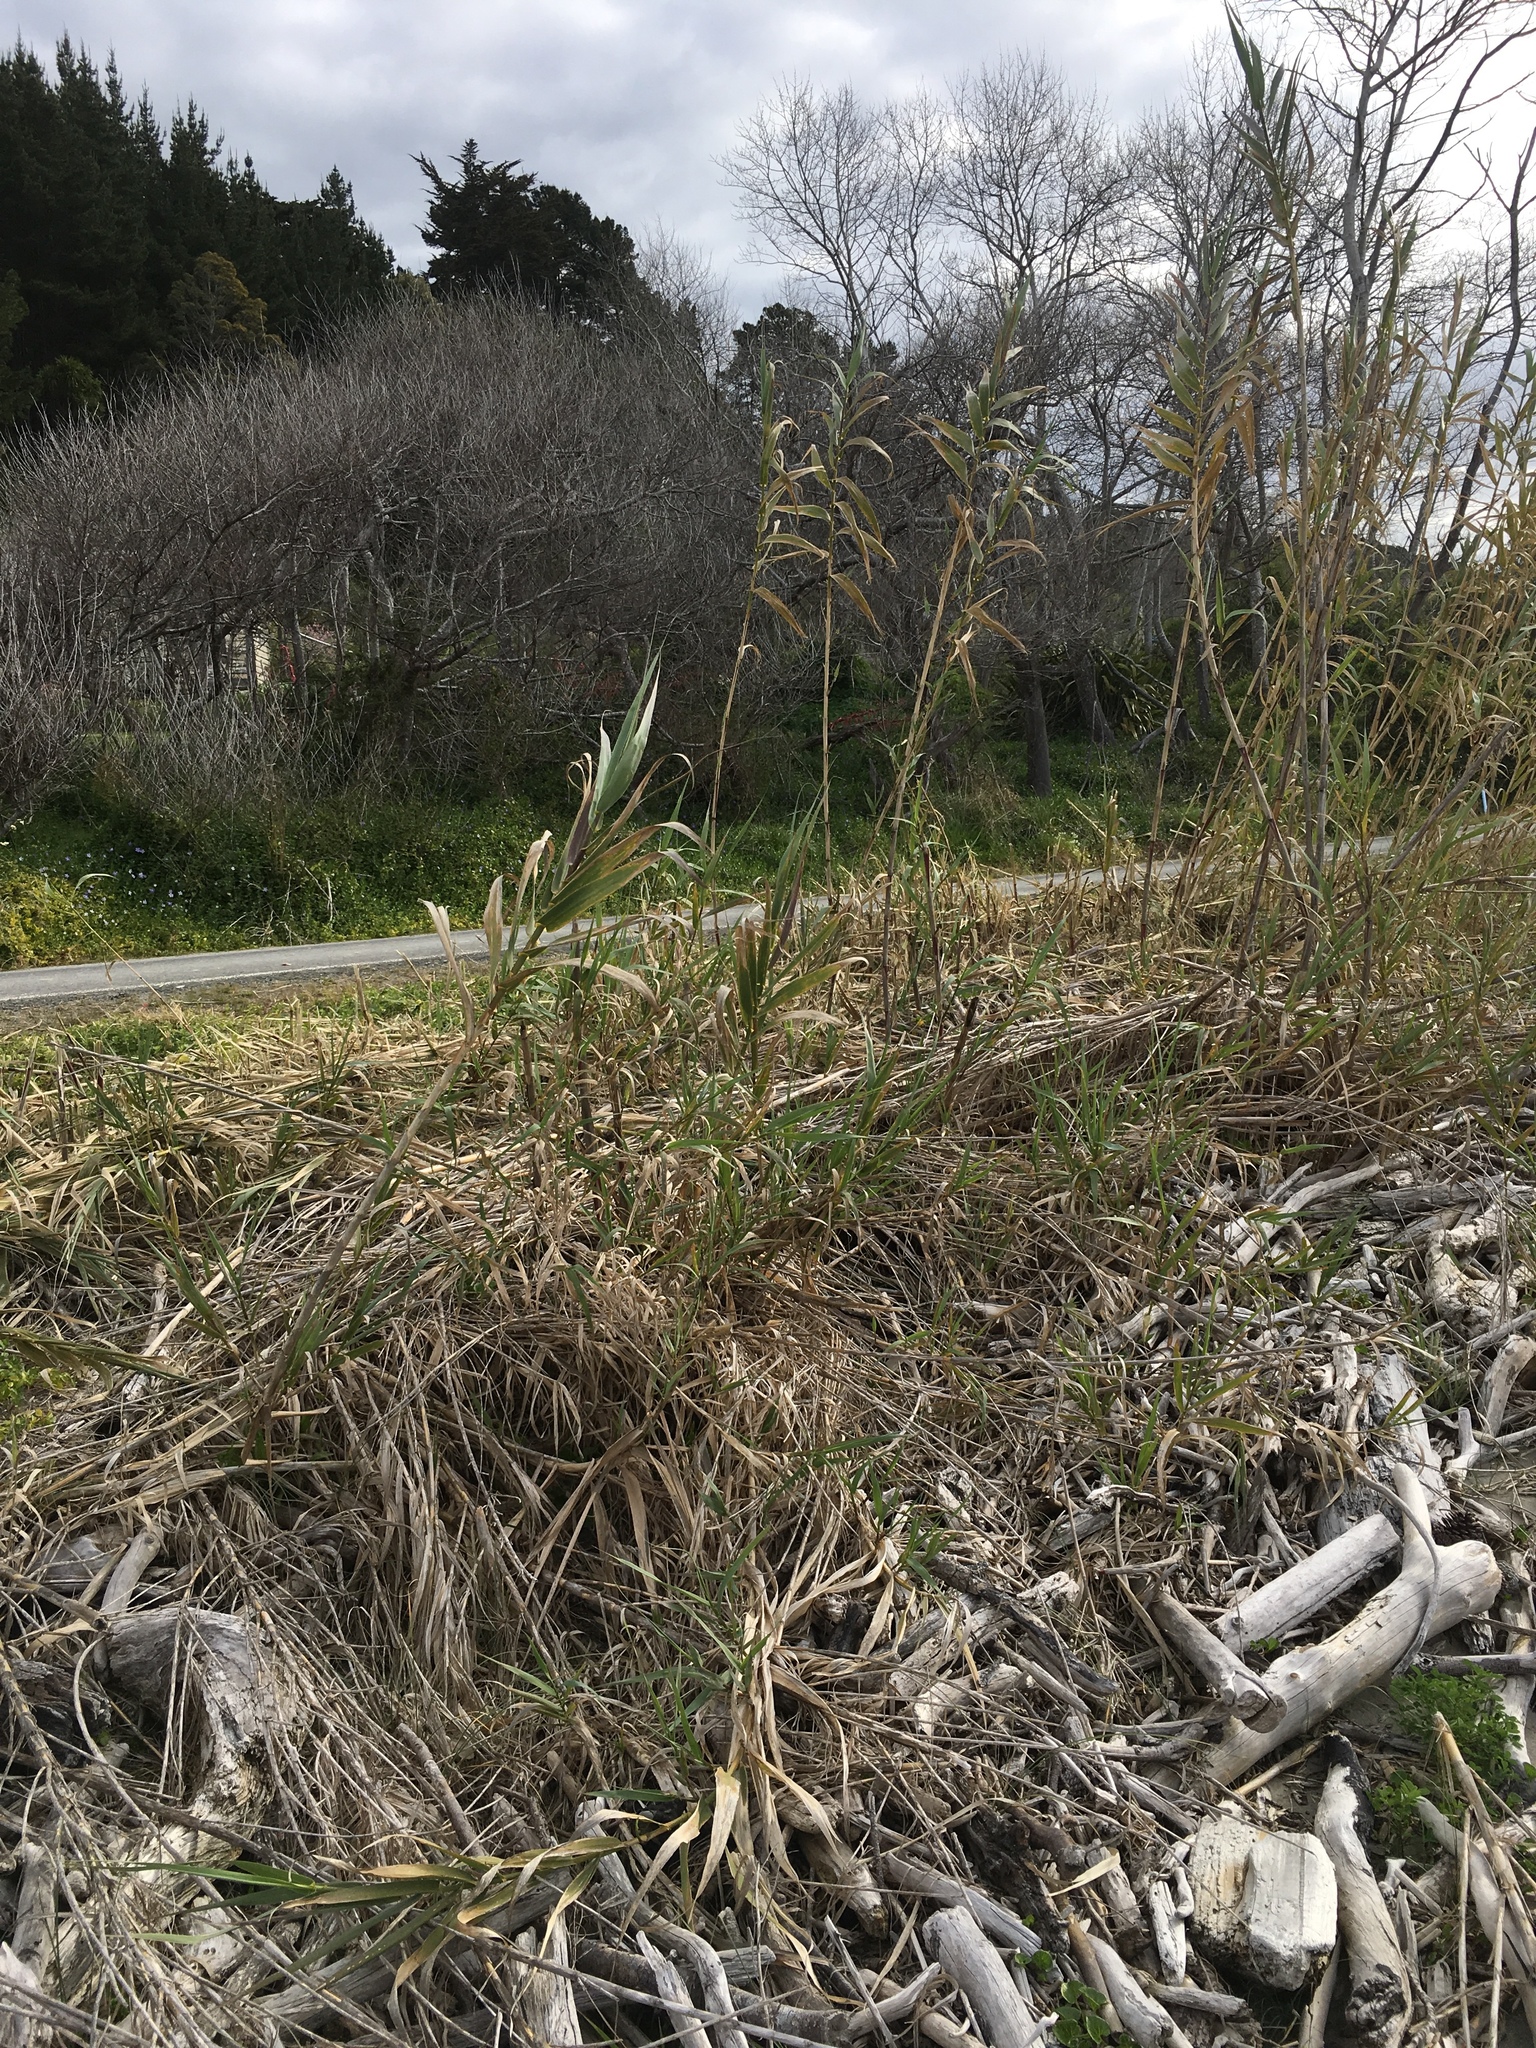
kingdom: Plantae
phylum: Tracheophyta
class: Liliopsida
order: Poales
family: Poaceae
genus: Arundo
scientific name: Arundo donax
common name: Giant reed
